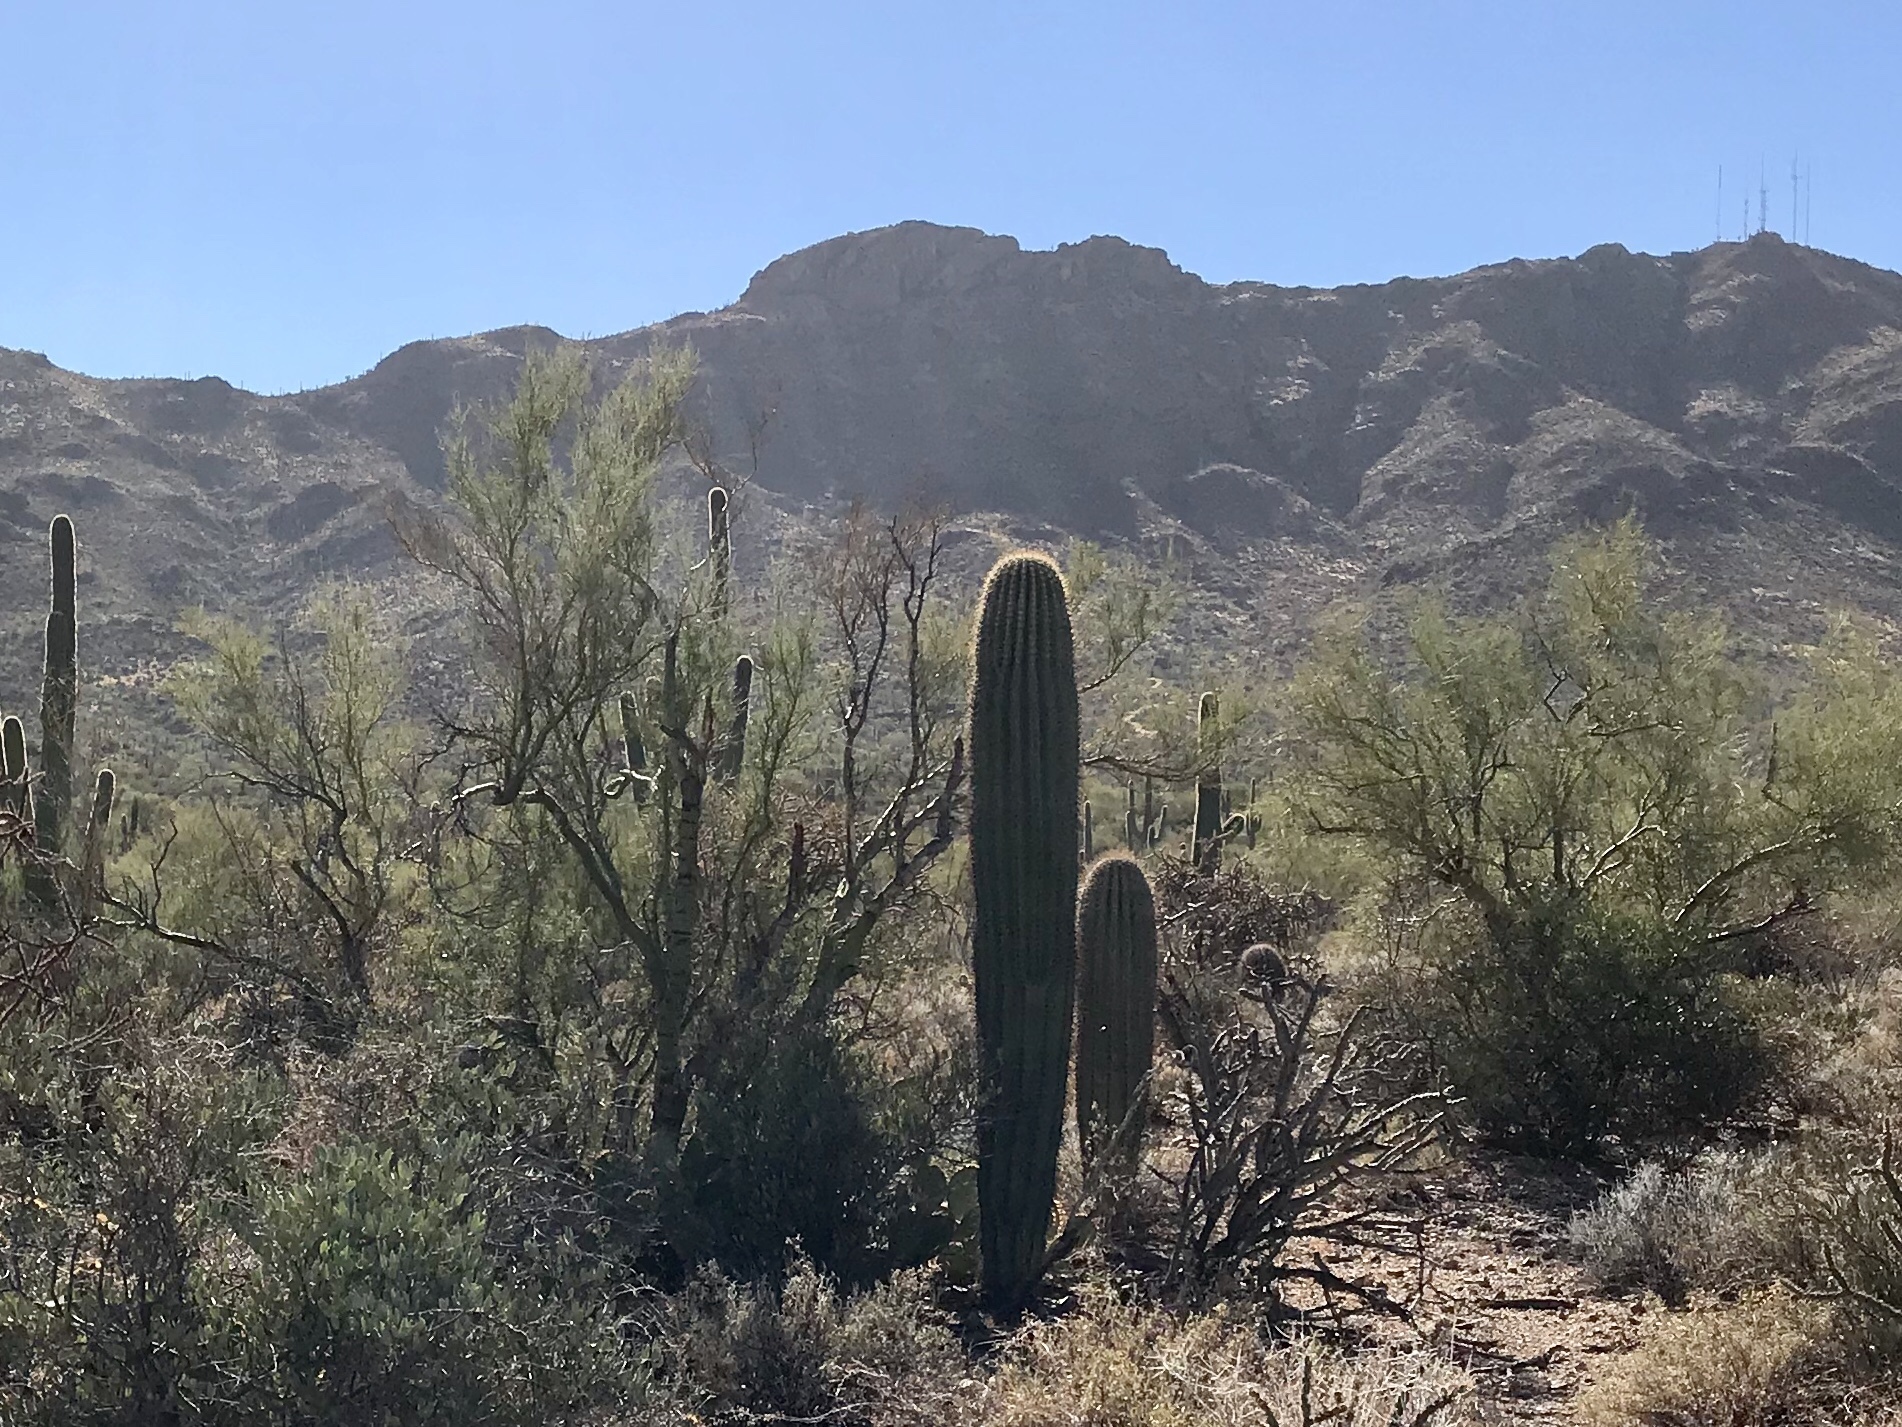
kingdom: Plantae
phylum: Tracheophyta
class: Magnoliopsida
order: Caryophyllales
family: Cactaceae
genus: Carnegiea
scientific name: Carnegiea gigantea
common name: Saguaro
